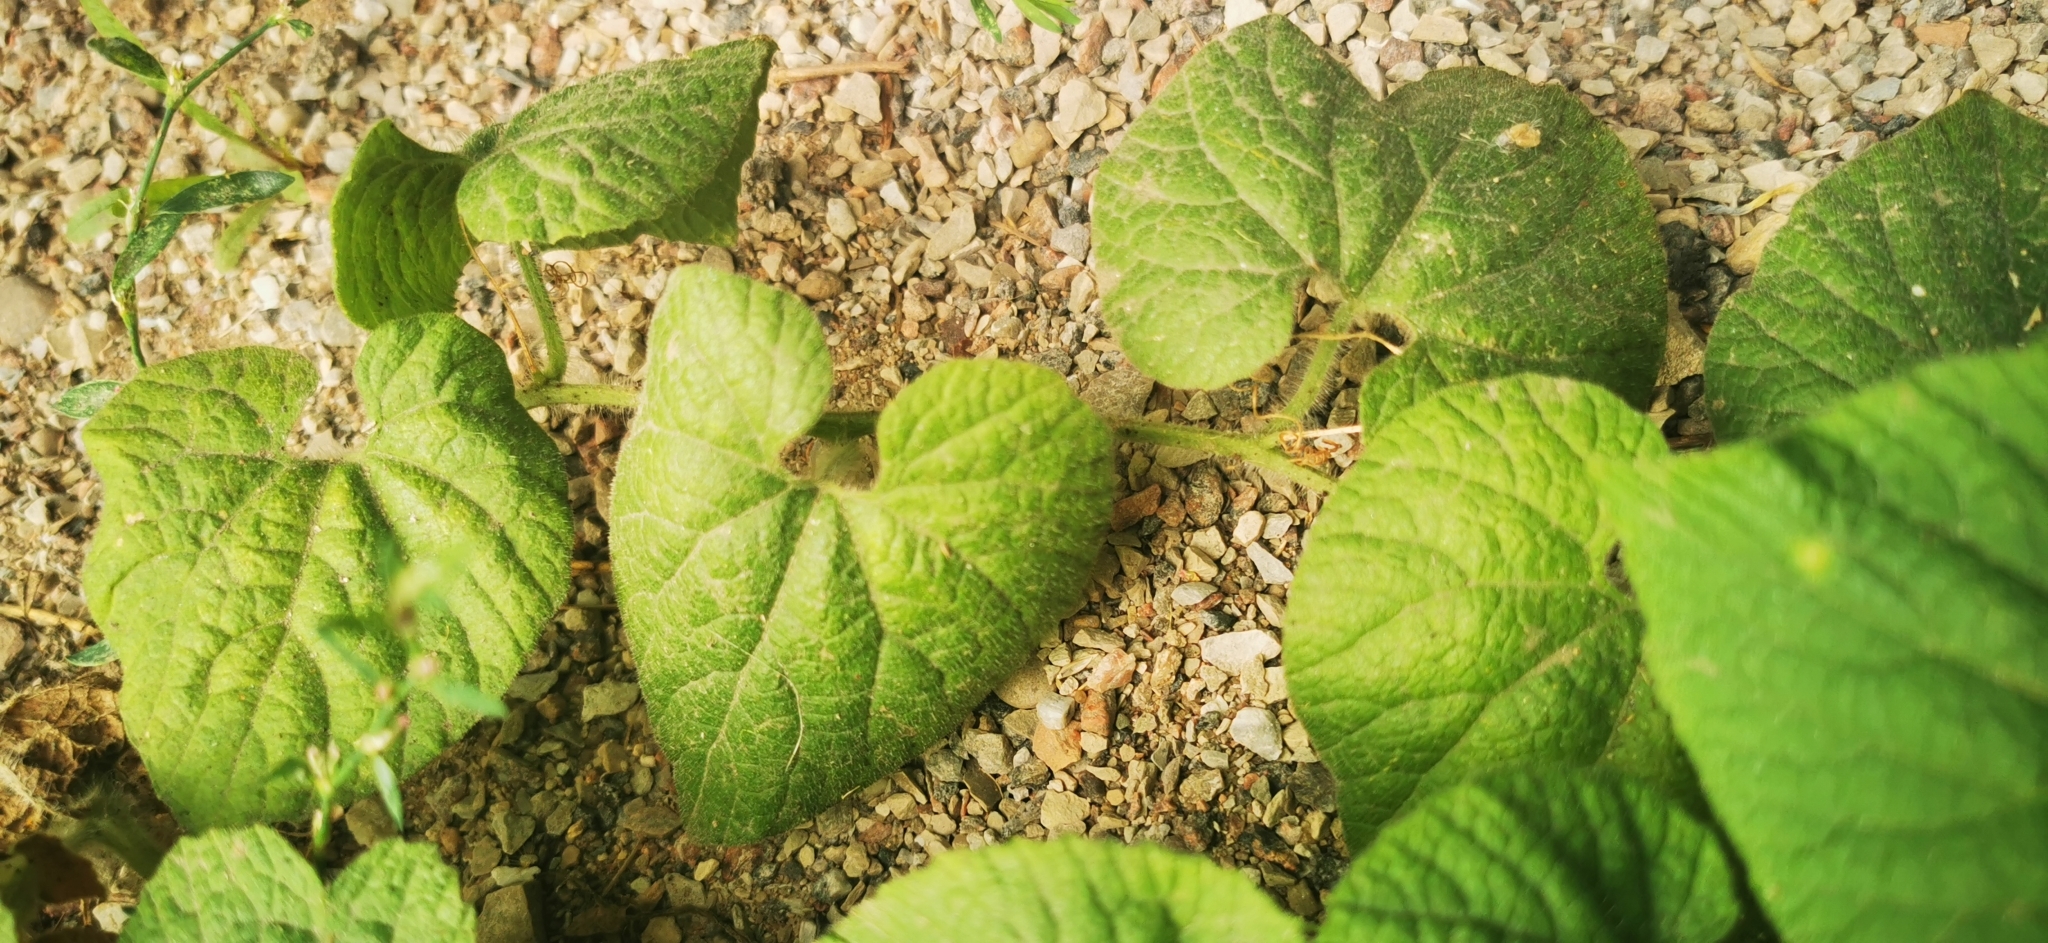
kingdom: Plantae
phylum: Tracheophyta
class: Magnoliopsida
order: Cucurbitales
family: Cucurbitaceae
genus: Thladiantha
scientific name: Thladiantha dubia
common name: Manchu tubergourd
